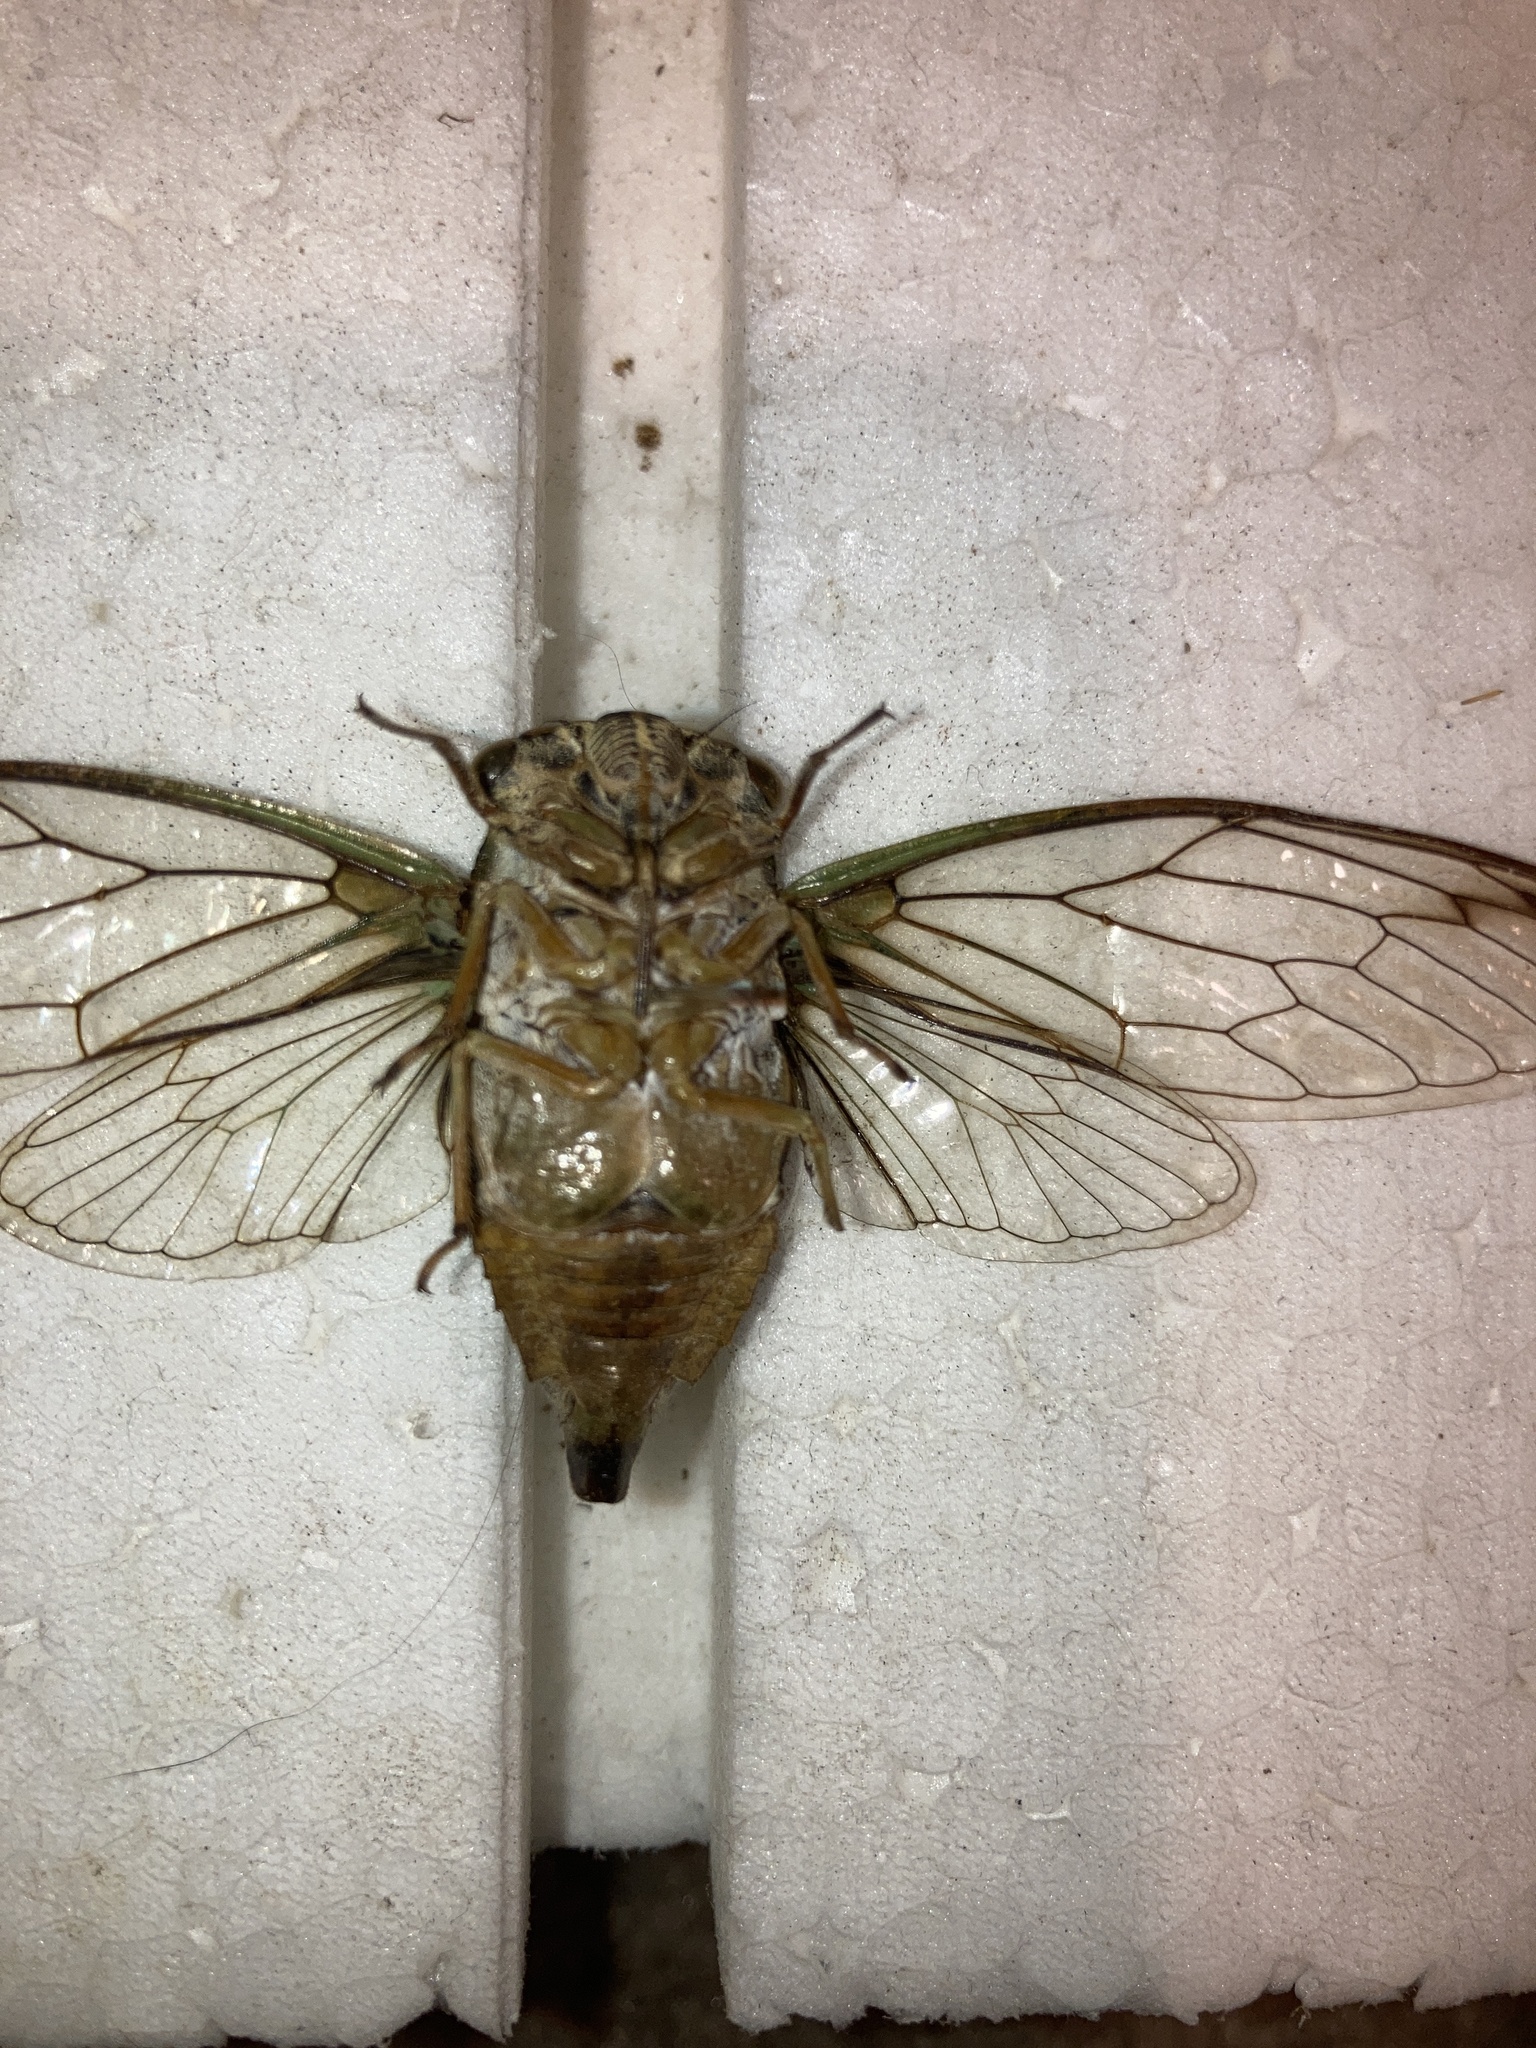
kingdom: Animalia
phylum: Arthropoda
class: Insecta
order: Hemiptera
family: Cicadidae
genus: Neotibicen
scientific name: Neotibicen linnei
